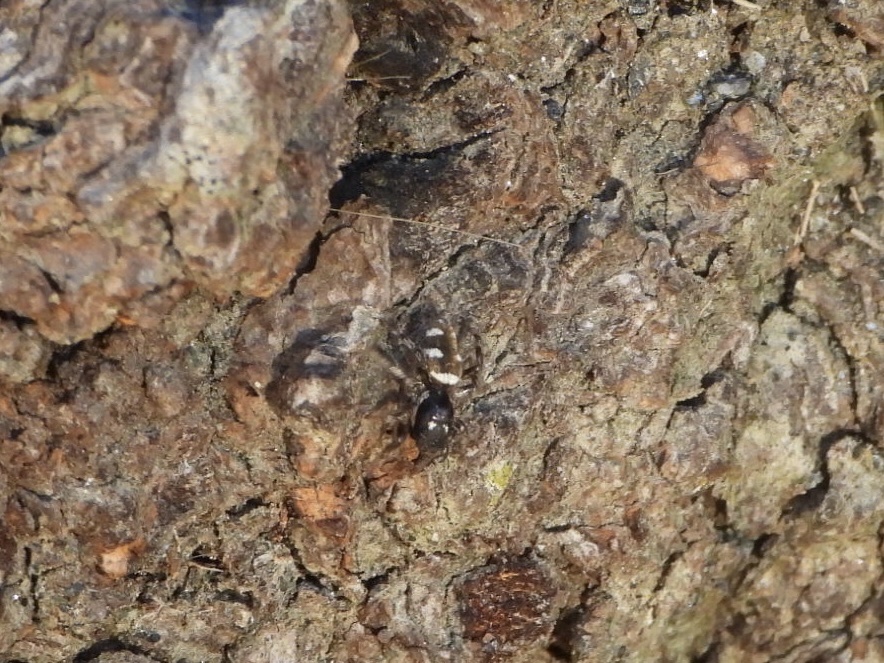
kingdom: Animalia
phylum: Arthropoda
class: Arachnida
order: Araneae
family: Salticidae
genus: Salticus
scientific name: Salticus scenicus
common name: Zebra jumper
